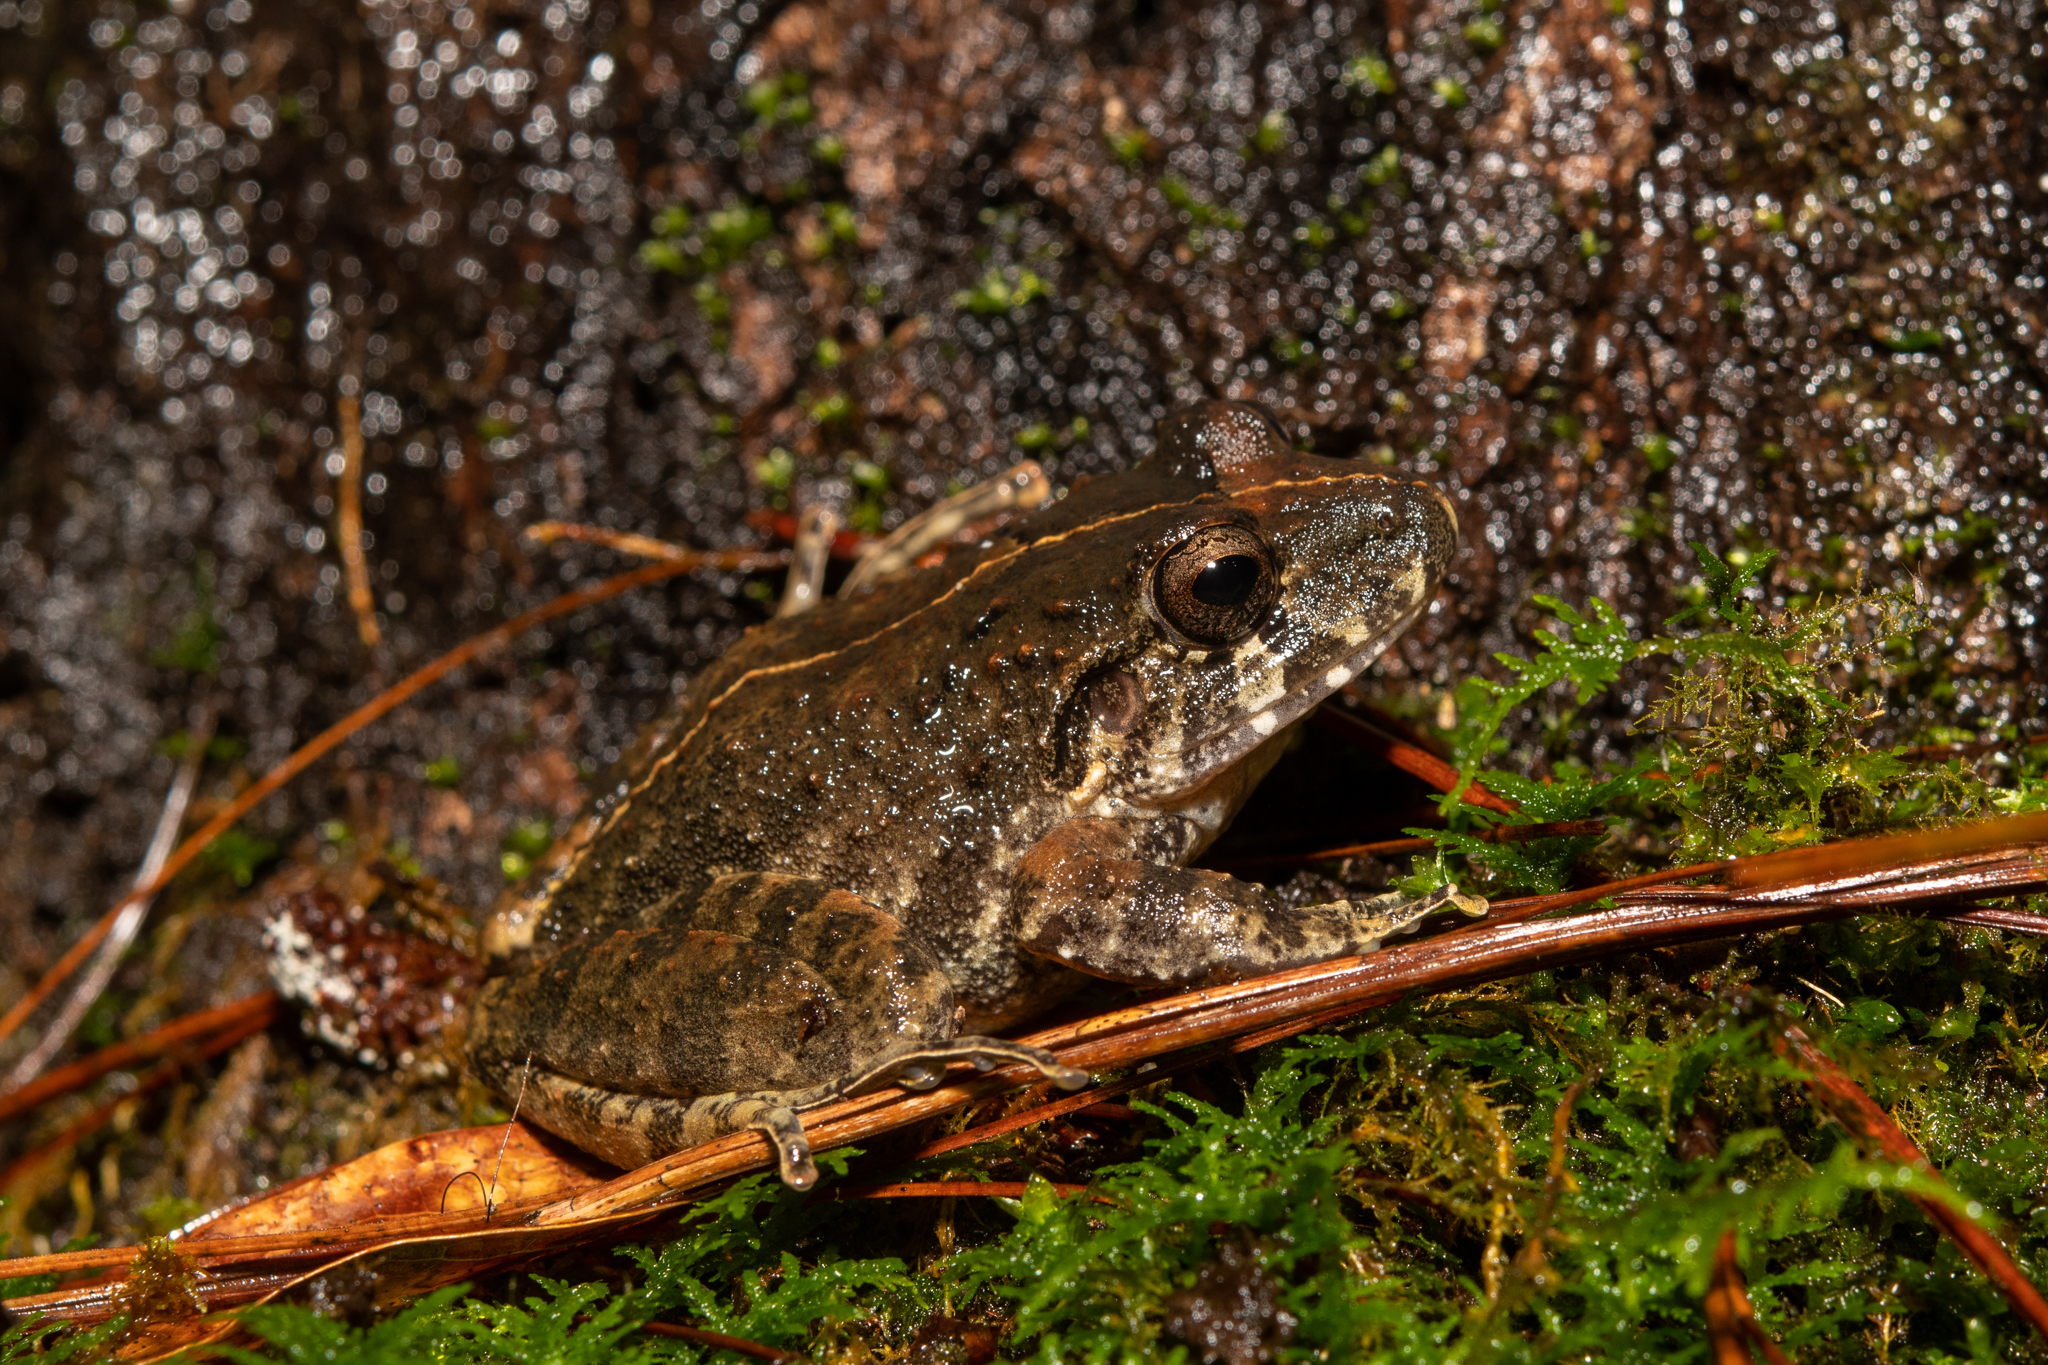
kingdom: Animalia
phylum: Chordata
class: Amphibia
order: Anura
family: Craugastoridae
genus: Craugastor
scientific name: Craugastor emleni
